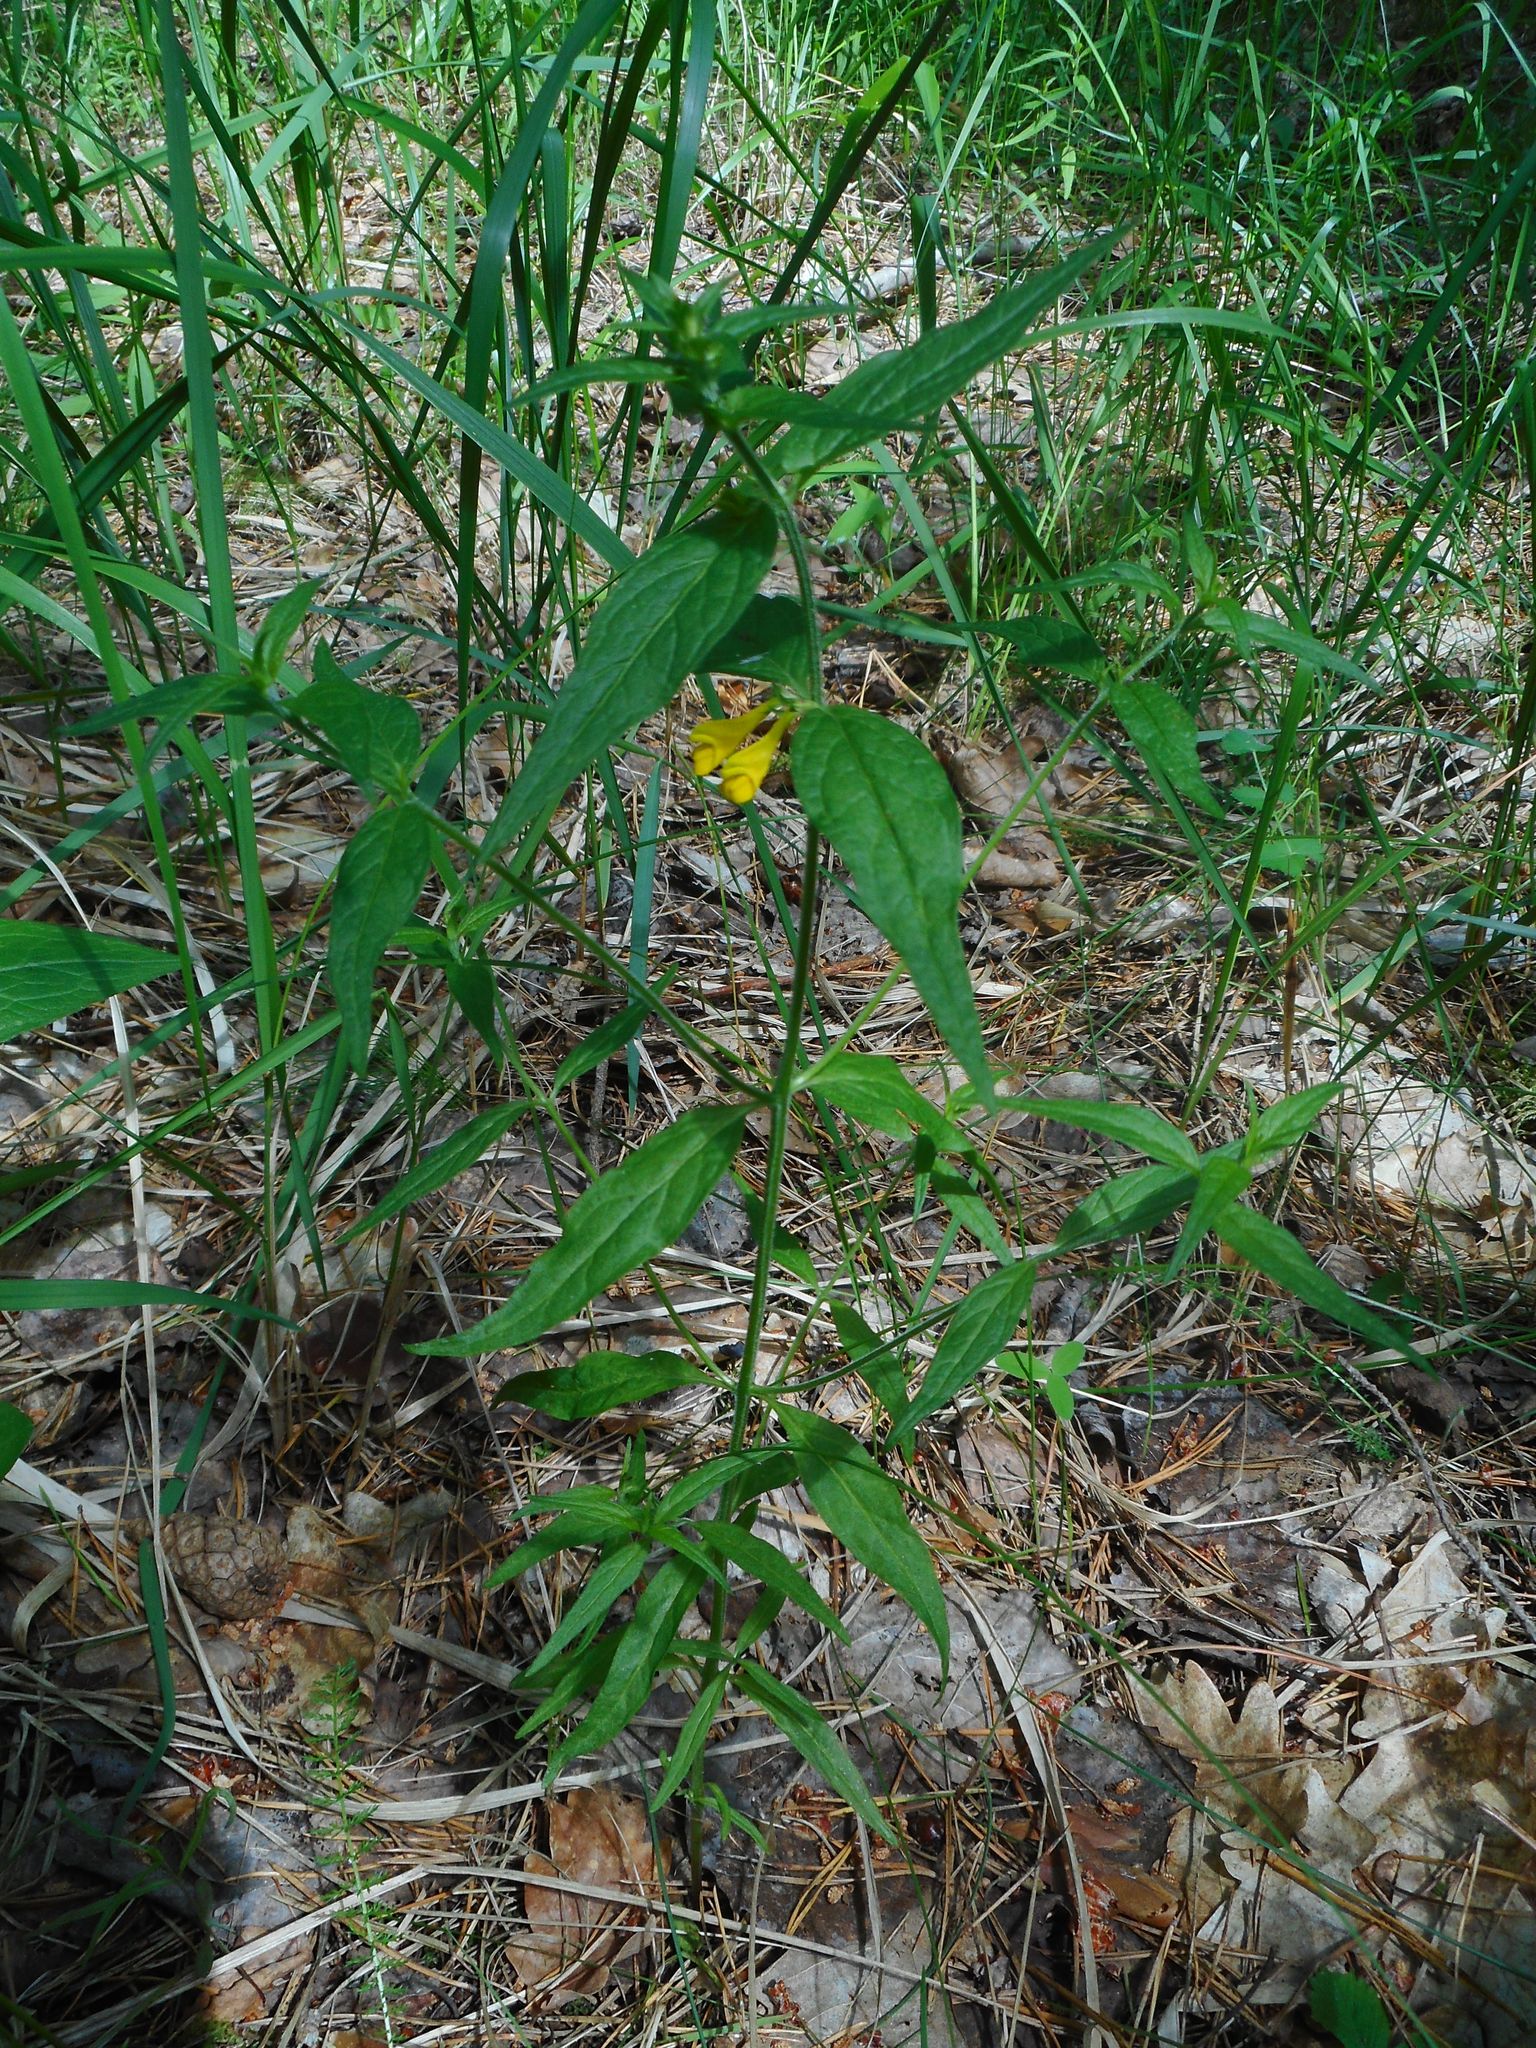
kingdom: Plantae
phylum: Tracheophyta
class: Magnoliopsida
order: Lamiales
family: Orobanchaceae
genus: Melampyrum
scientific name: Melampyrum nemorosum
